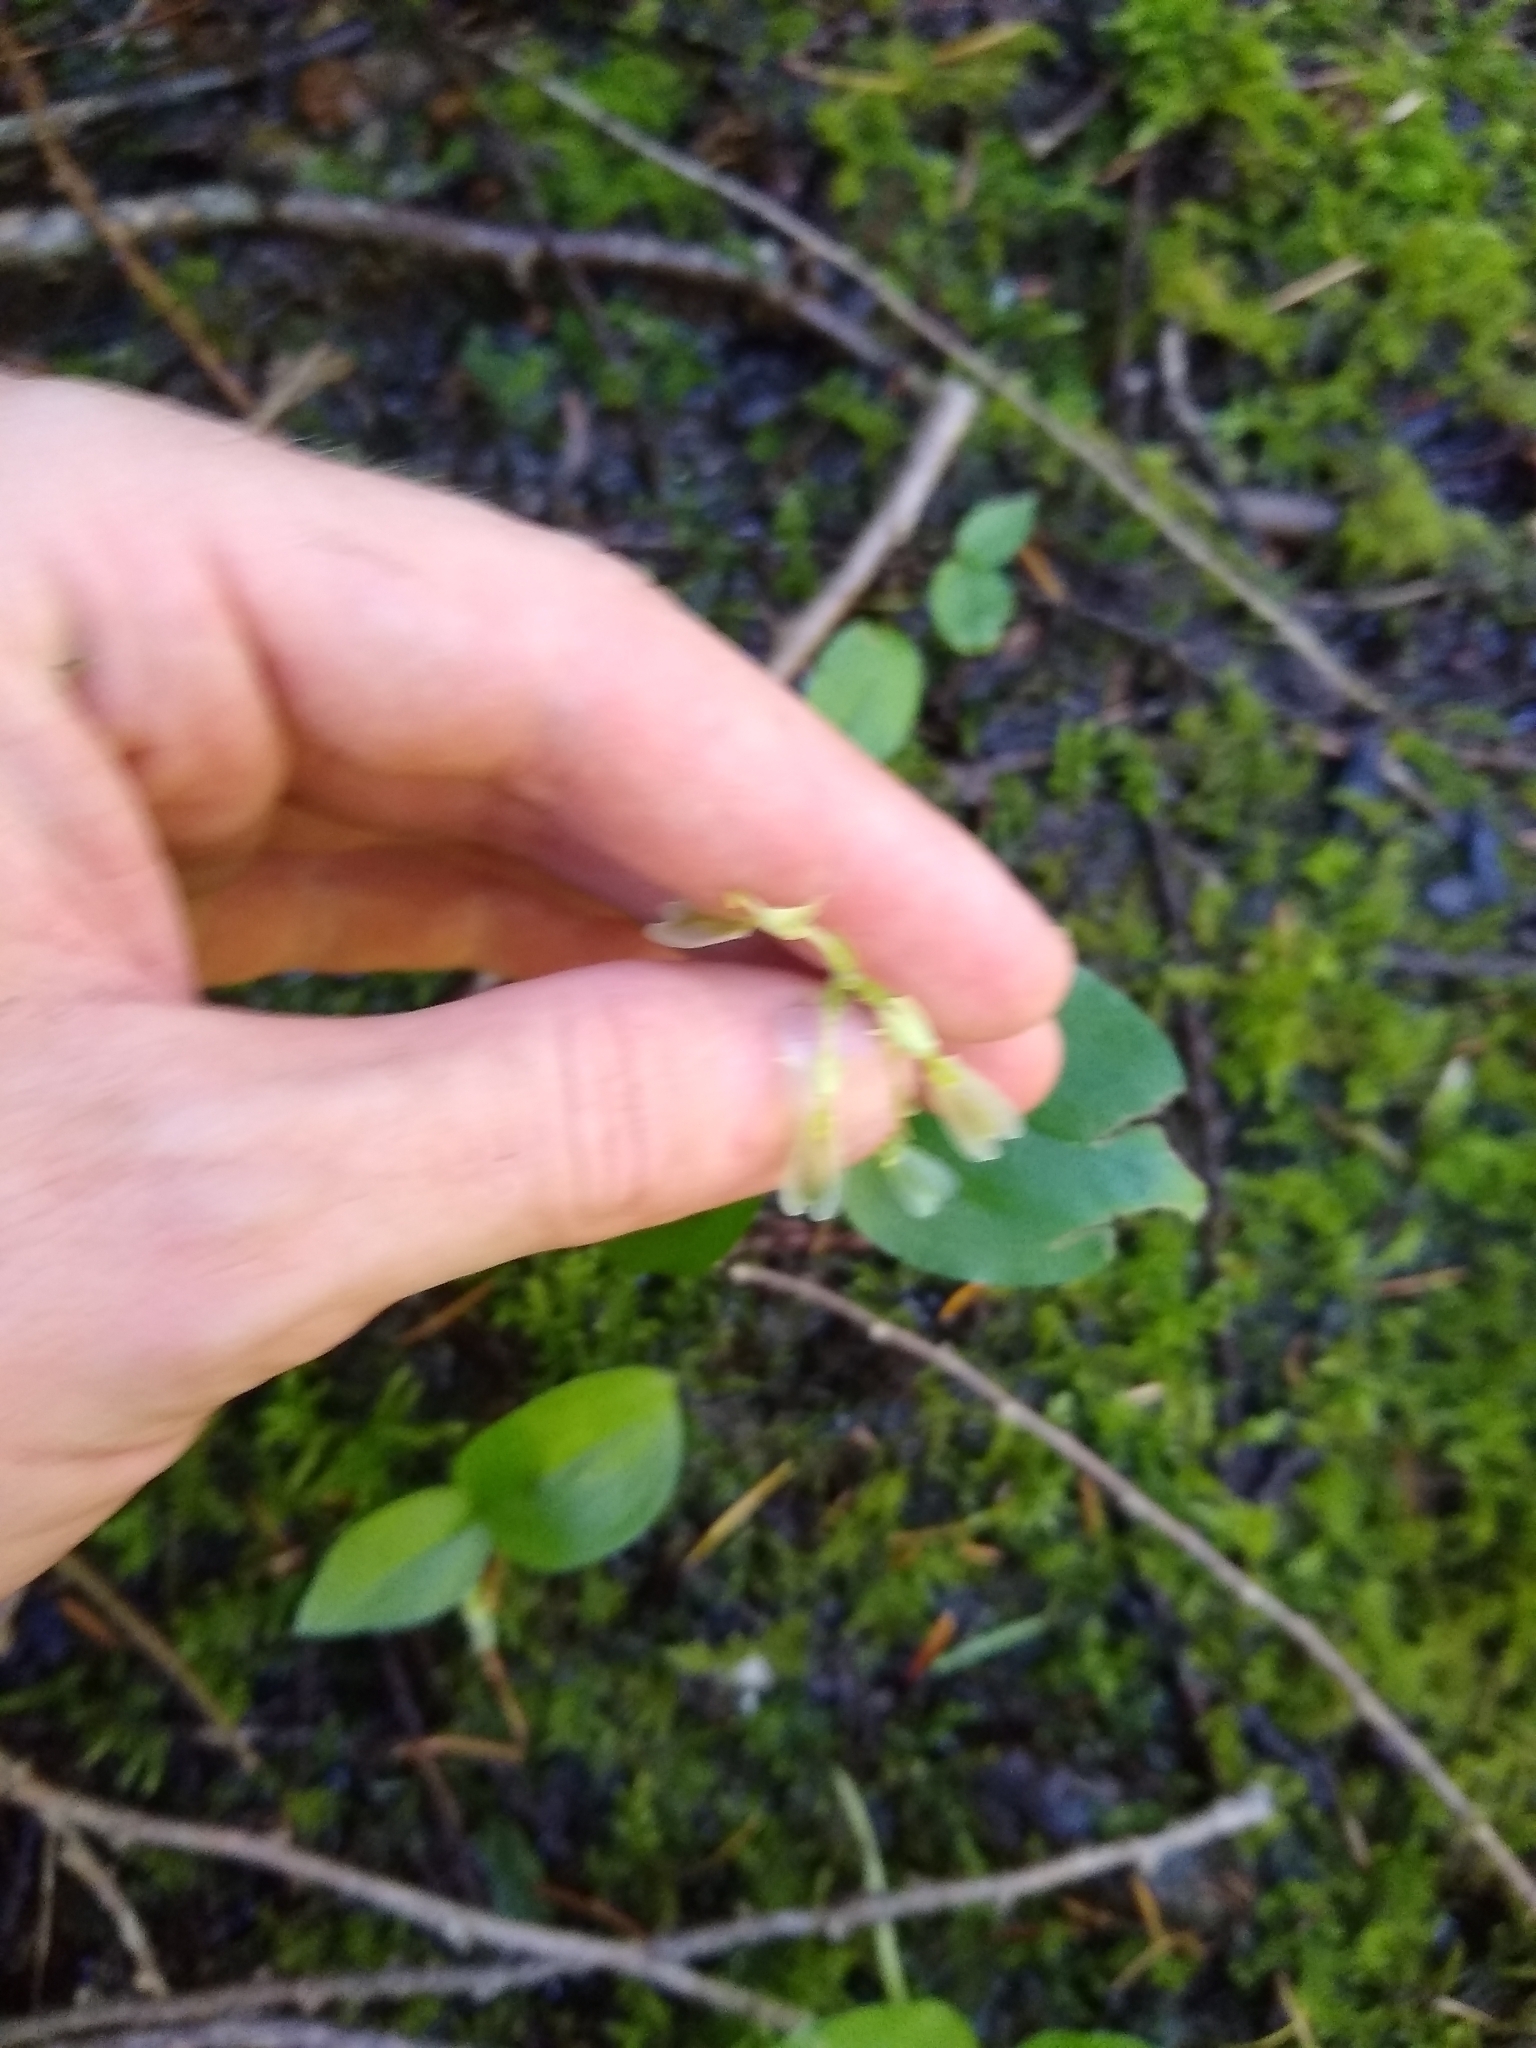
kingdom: Plantae
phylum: Tracheophyta
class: Liliopsida
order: Asparagales
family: Orchidaceae
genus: Neottia
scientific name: Neottia convallarioides
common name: Broadleaf twayblade
